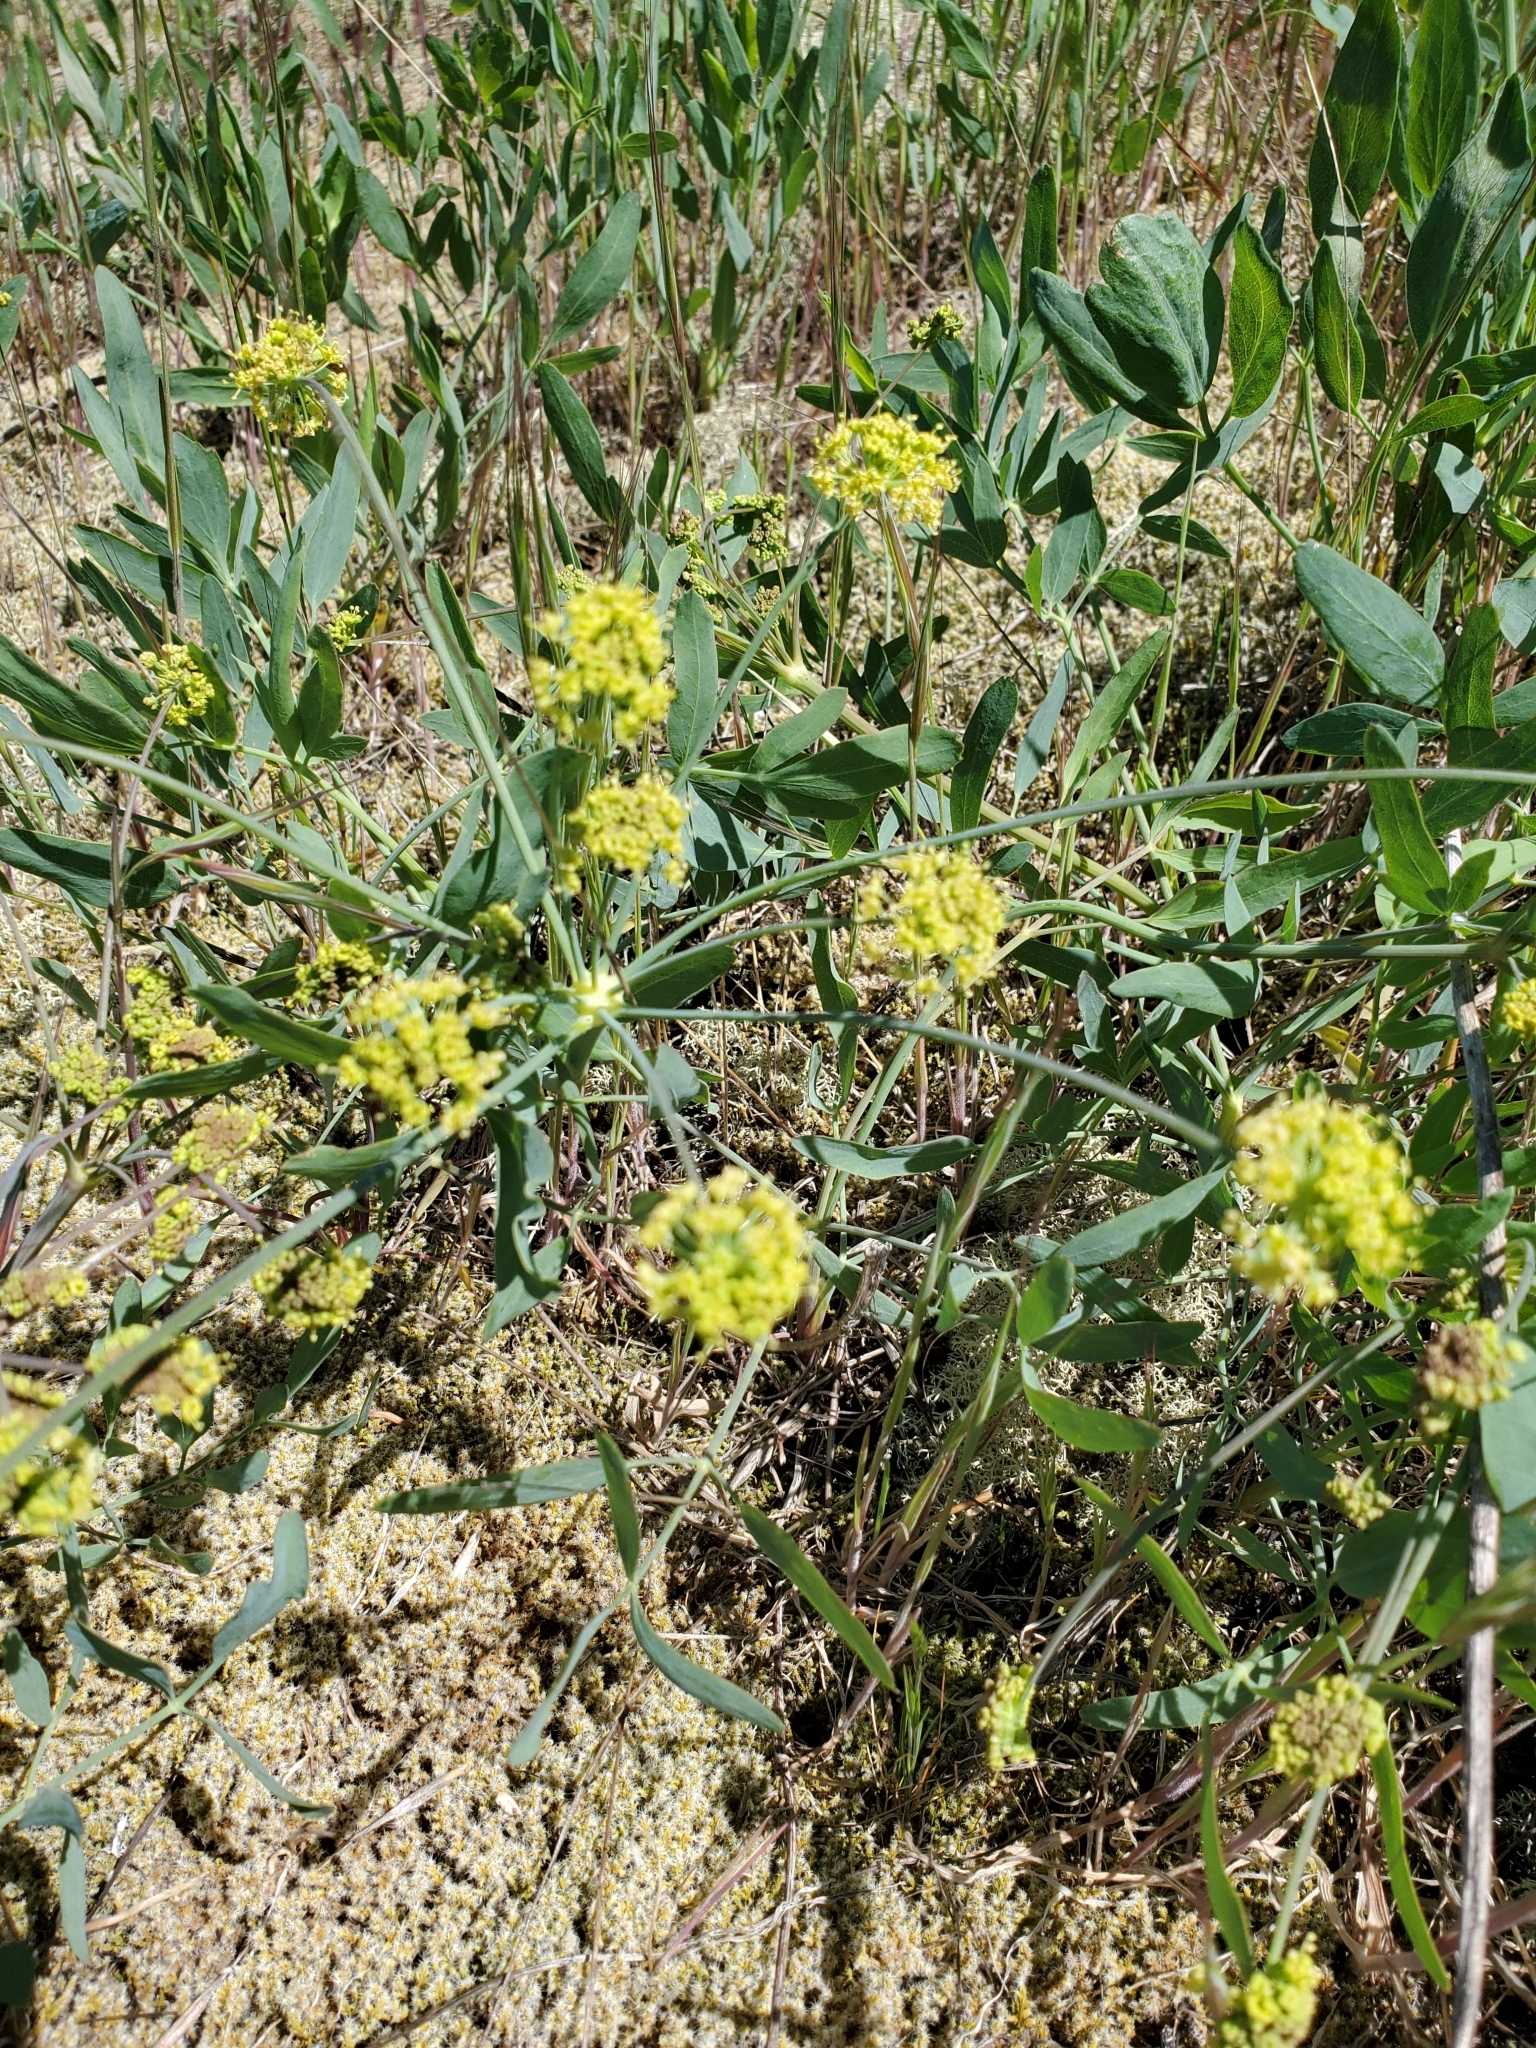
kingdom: Plantae
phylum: Tracheophyta
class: Magnoliopsida
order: Apiales
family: Apiaceae
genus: Lomatium
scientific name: Lomatium nudicaule
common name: Pestle lomatium
